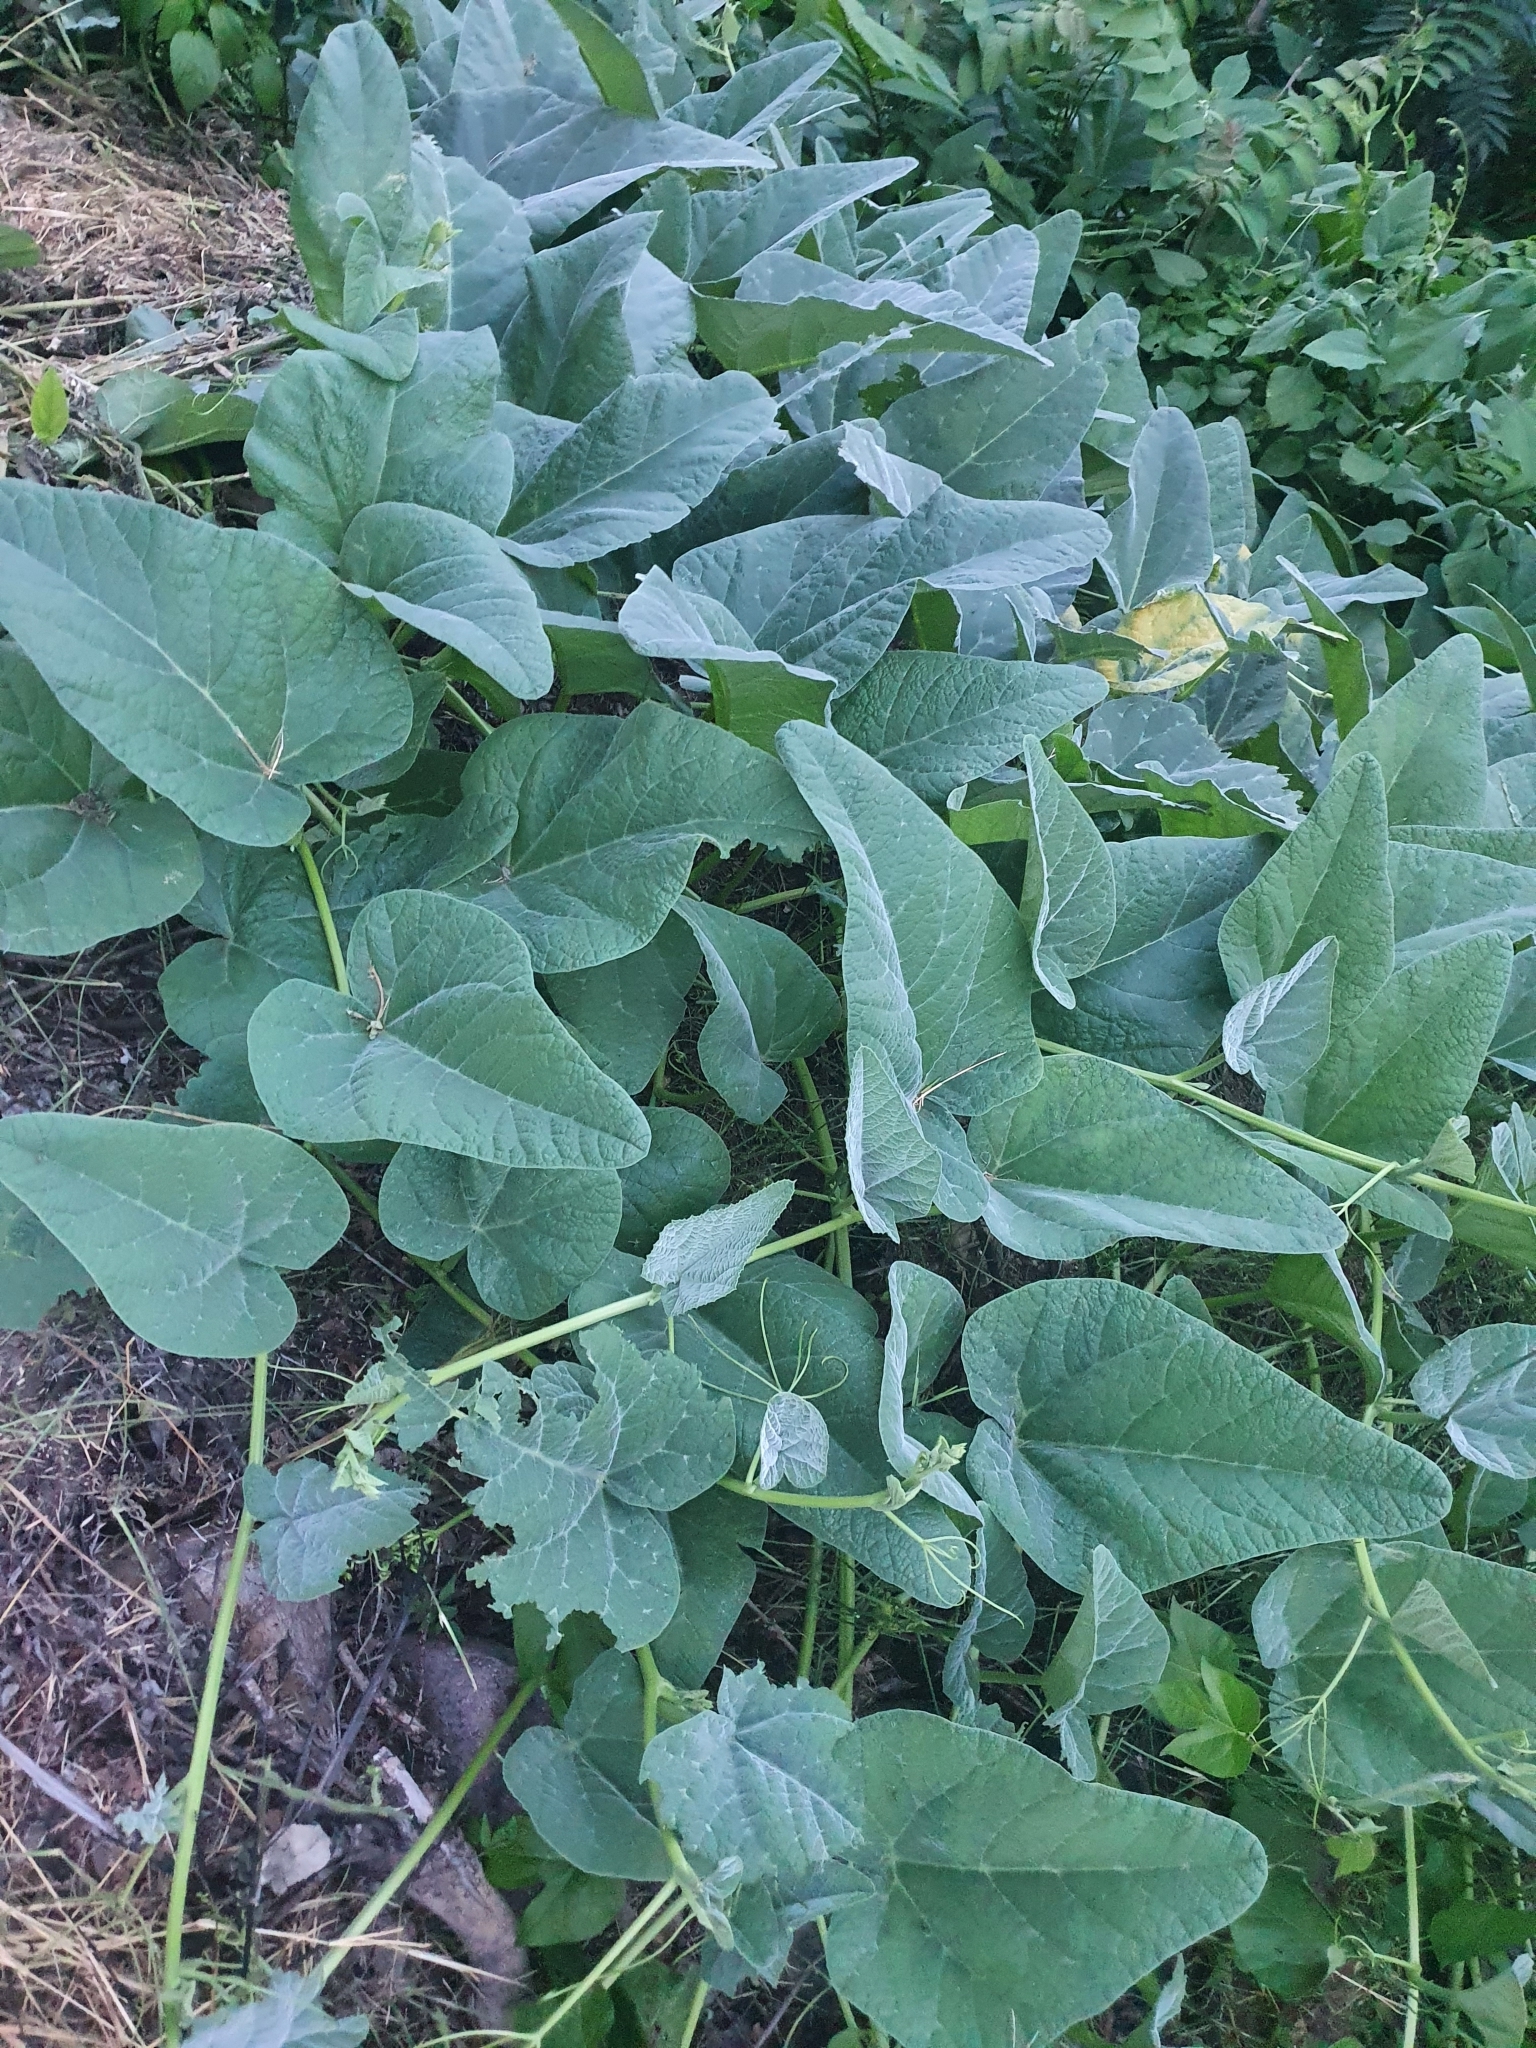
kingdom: Plantae
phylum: Tracheophyta
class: Magnoliopsida
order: Cucurbitales
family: Cucurbitaceae
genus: Cucurbita
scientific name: Cucurbita foetidissima
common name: Buffalo gourd
